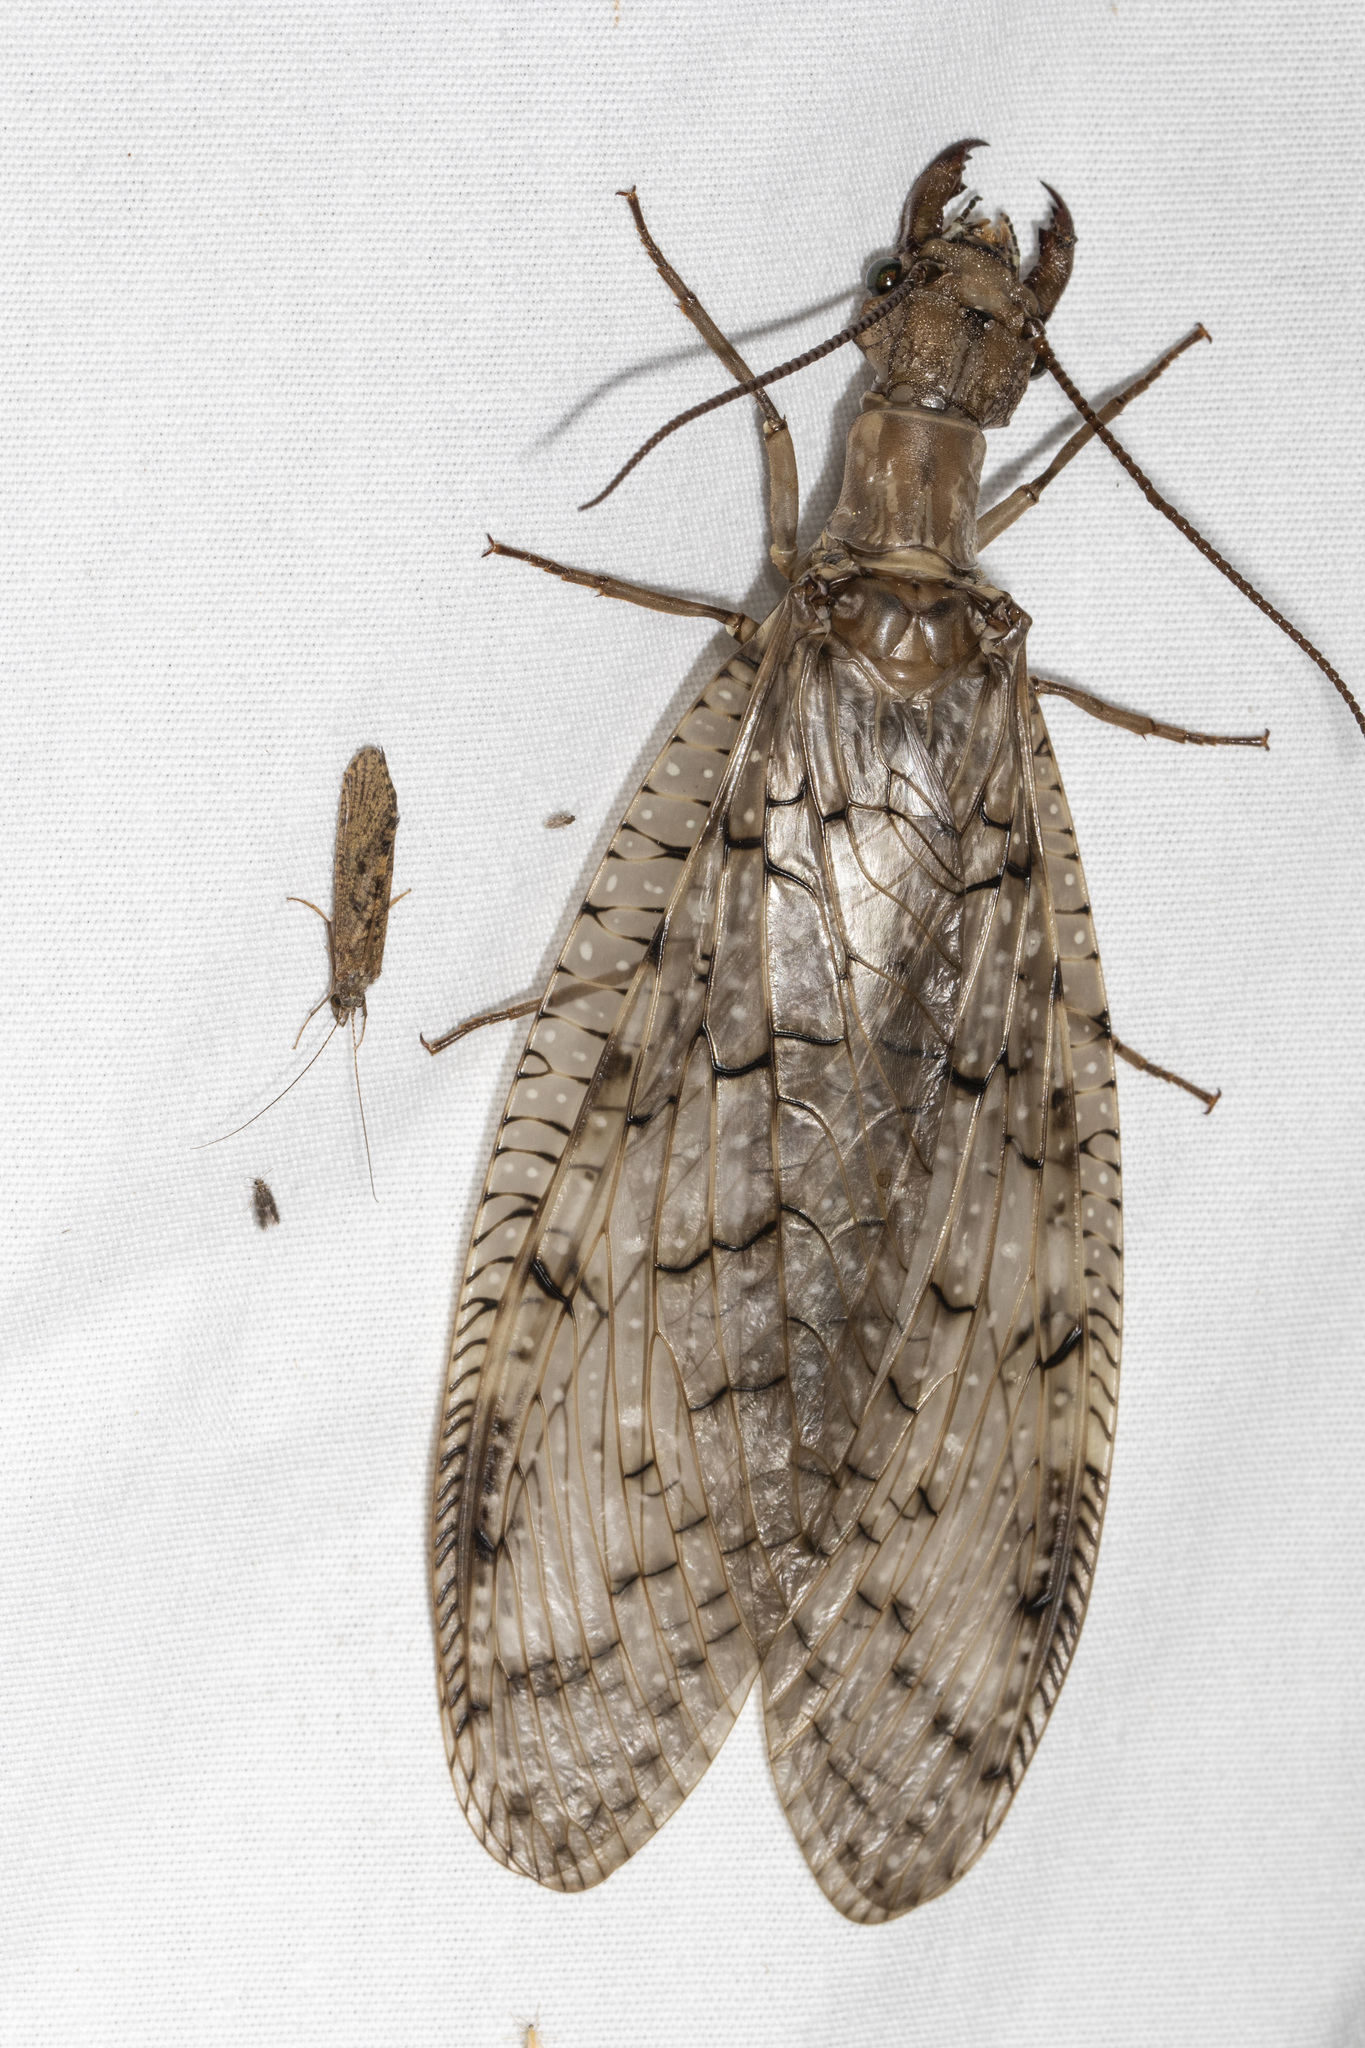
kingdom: Animalia
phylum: Arthropoda
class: Insecta
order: Megaloptera
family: Corydalidae
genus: Corydalus
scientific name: Corydalus cornutus
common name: Dobsonfly
